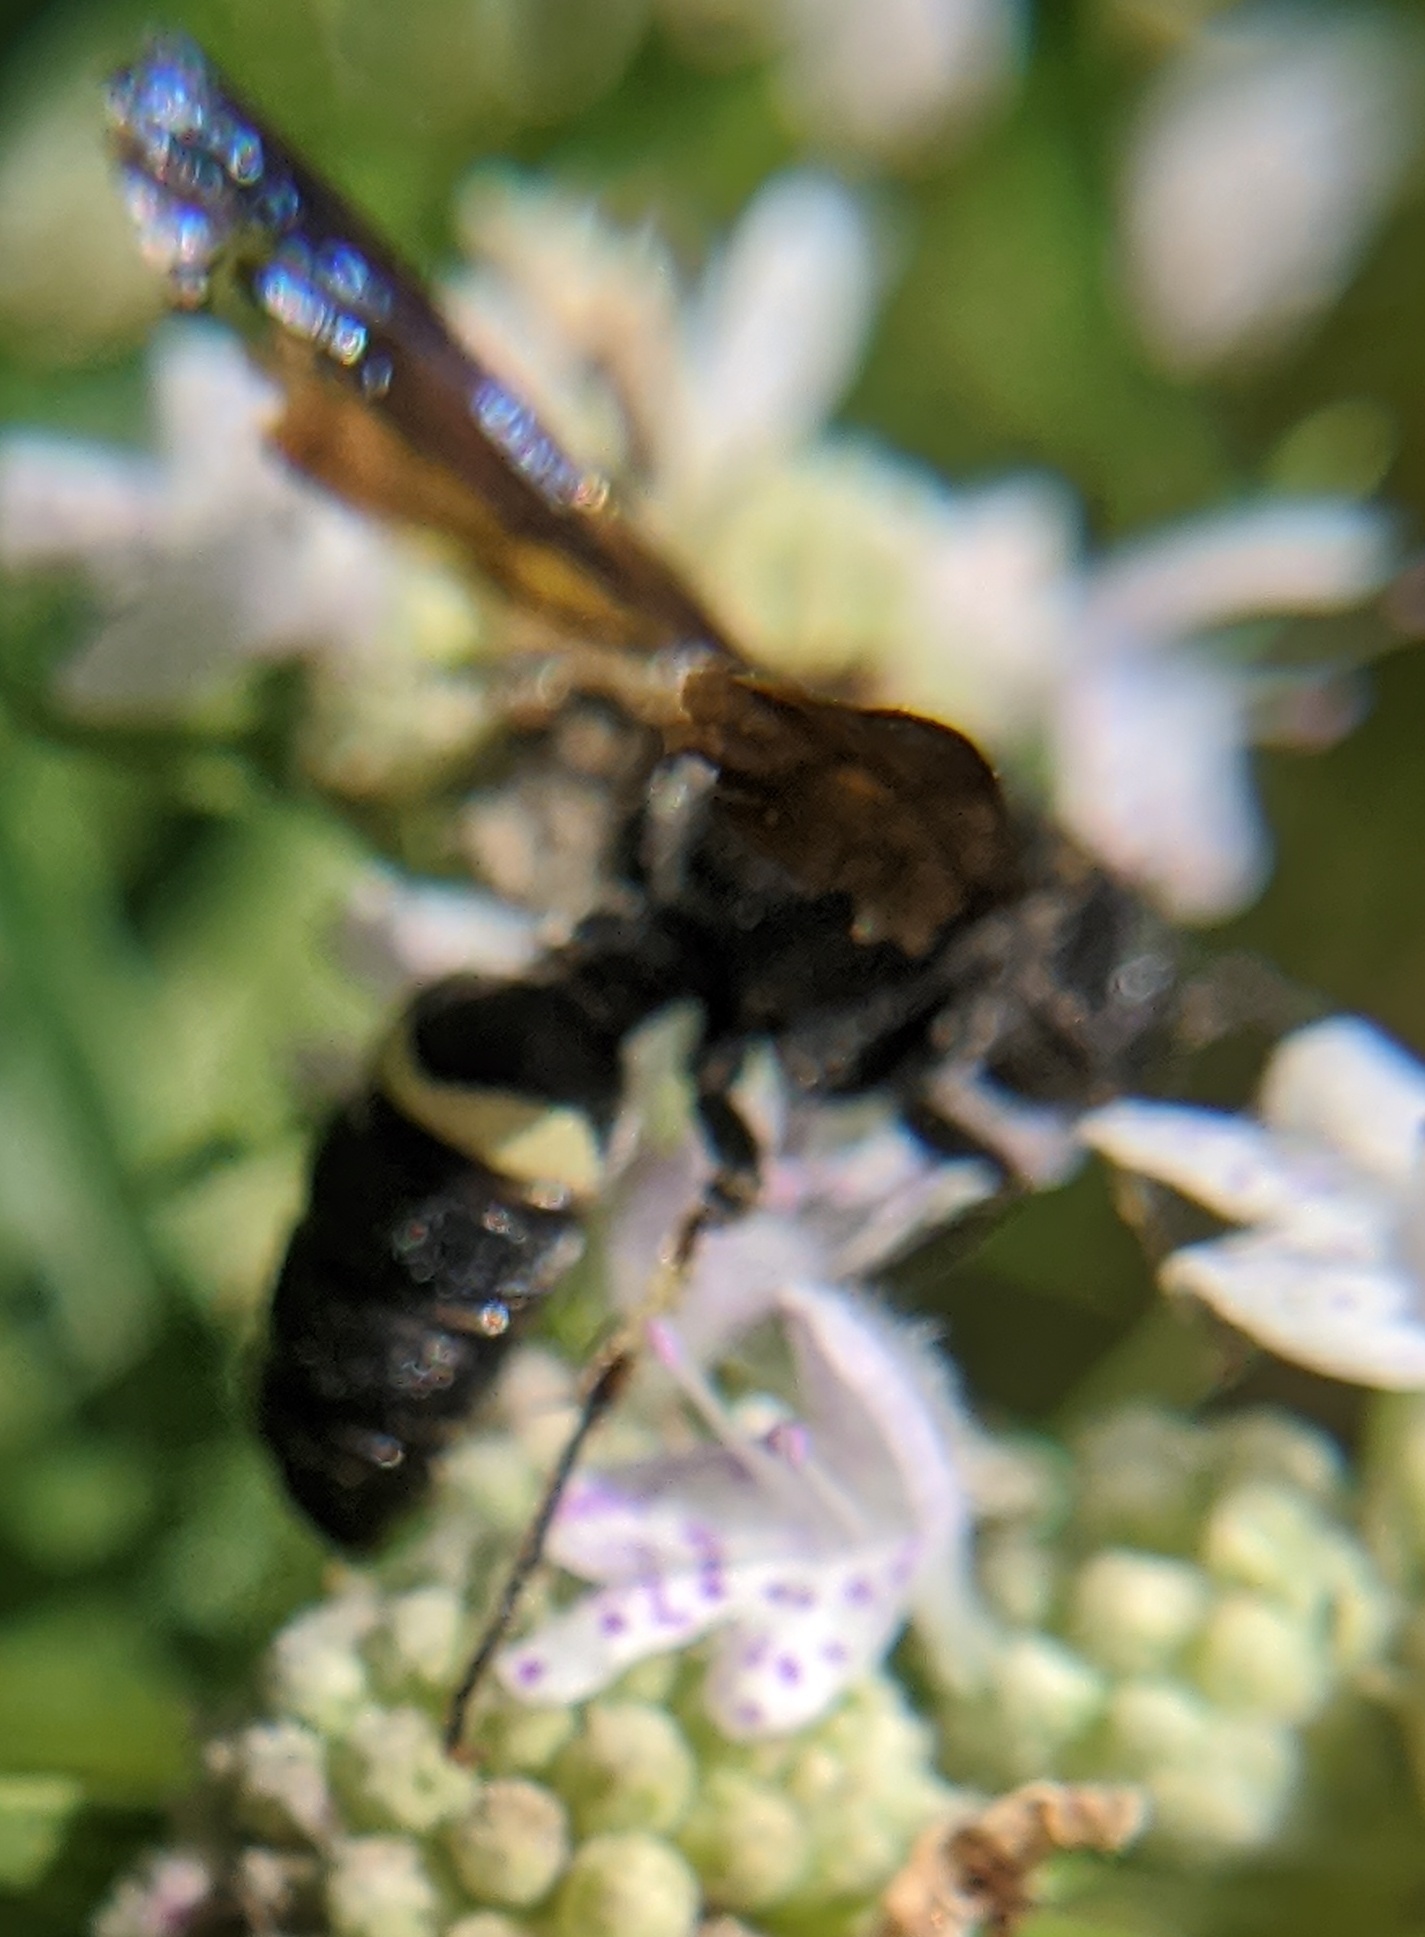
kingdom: Animalia
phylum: Arthropoda
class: Insecta
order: Hymenoptera
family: Crabronidae
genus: Cerceris
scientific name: Cerceris fumipennis
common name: Smokey-winged beetle bandit wasp
